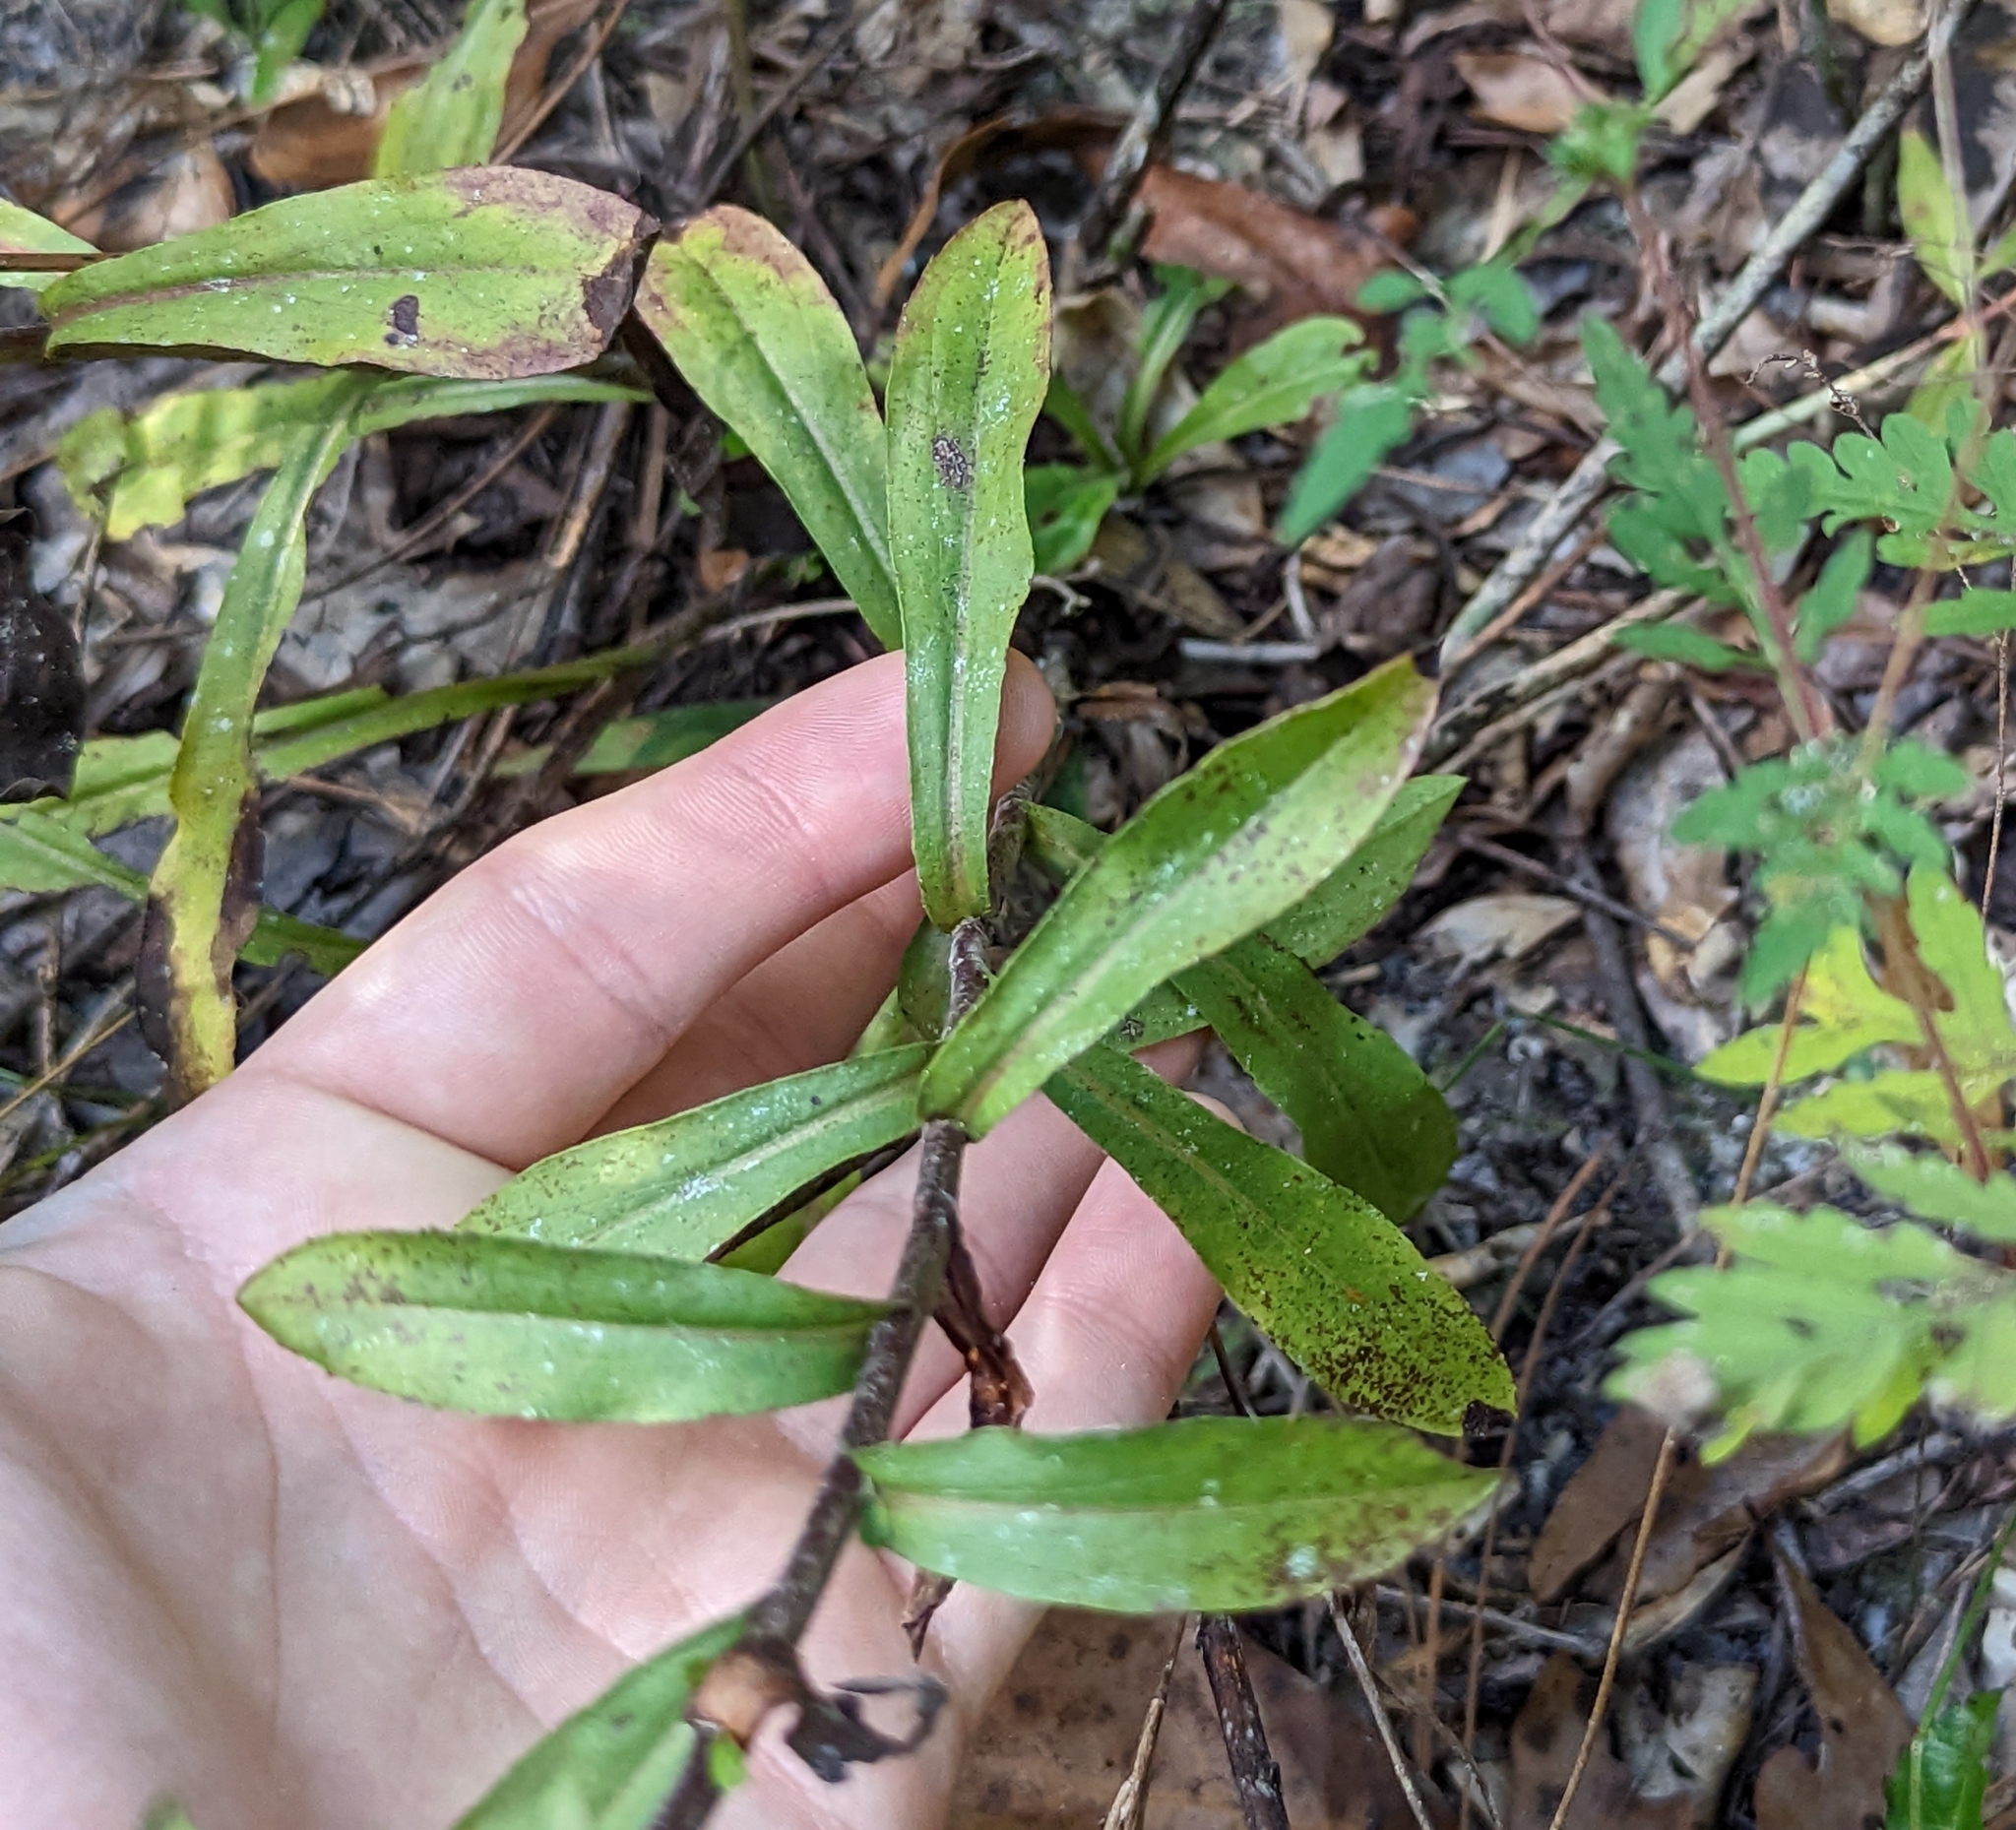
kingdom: Plantae
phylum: Tracheophyta
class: Magnoliopsida
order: Asterales
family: Asteraceae
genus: Chrysopsis
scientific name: Chrysopsis mariana
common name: Maryland golden-aster
